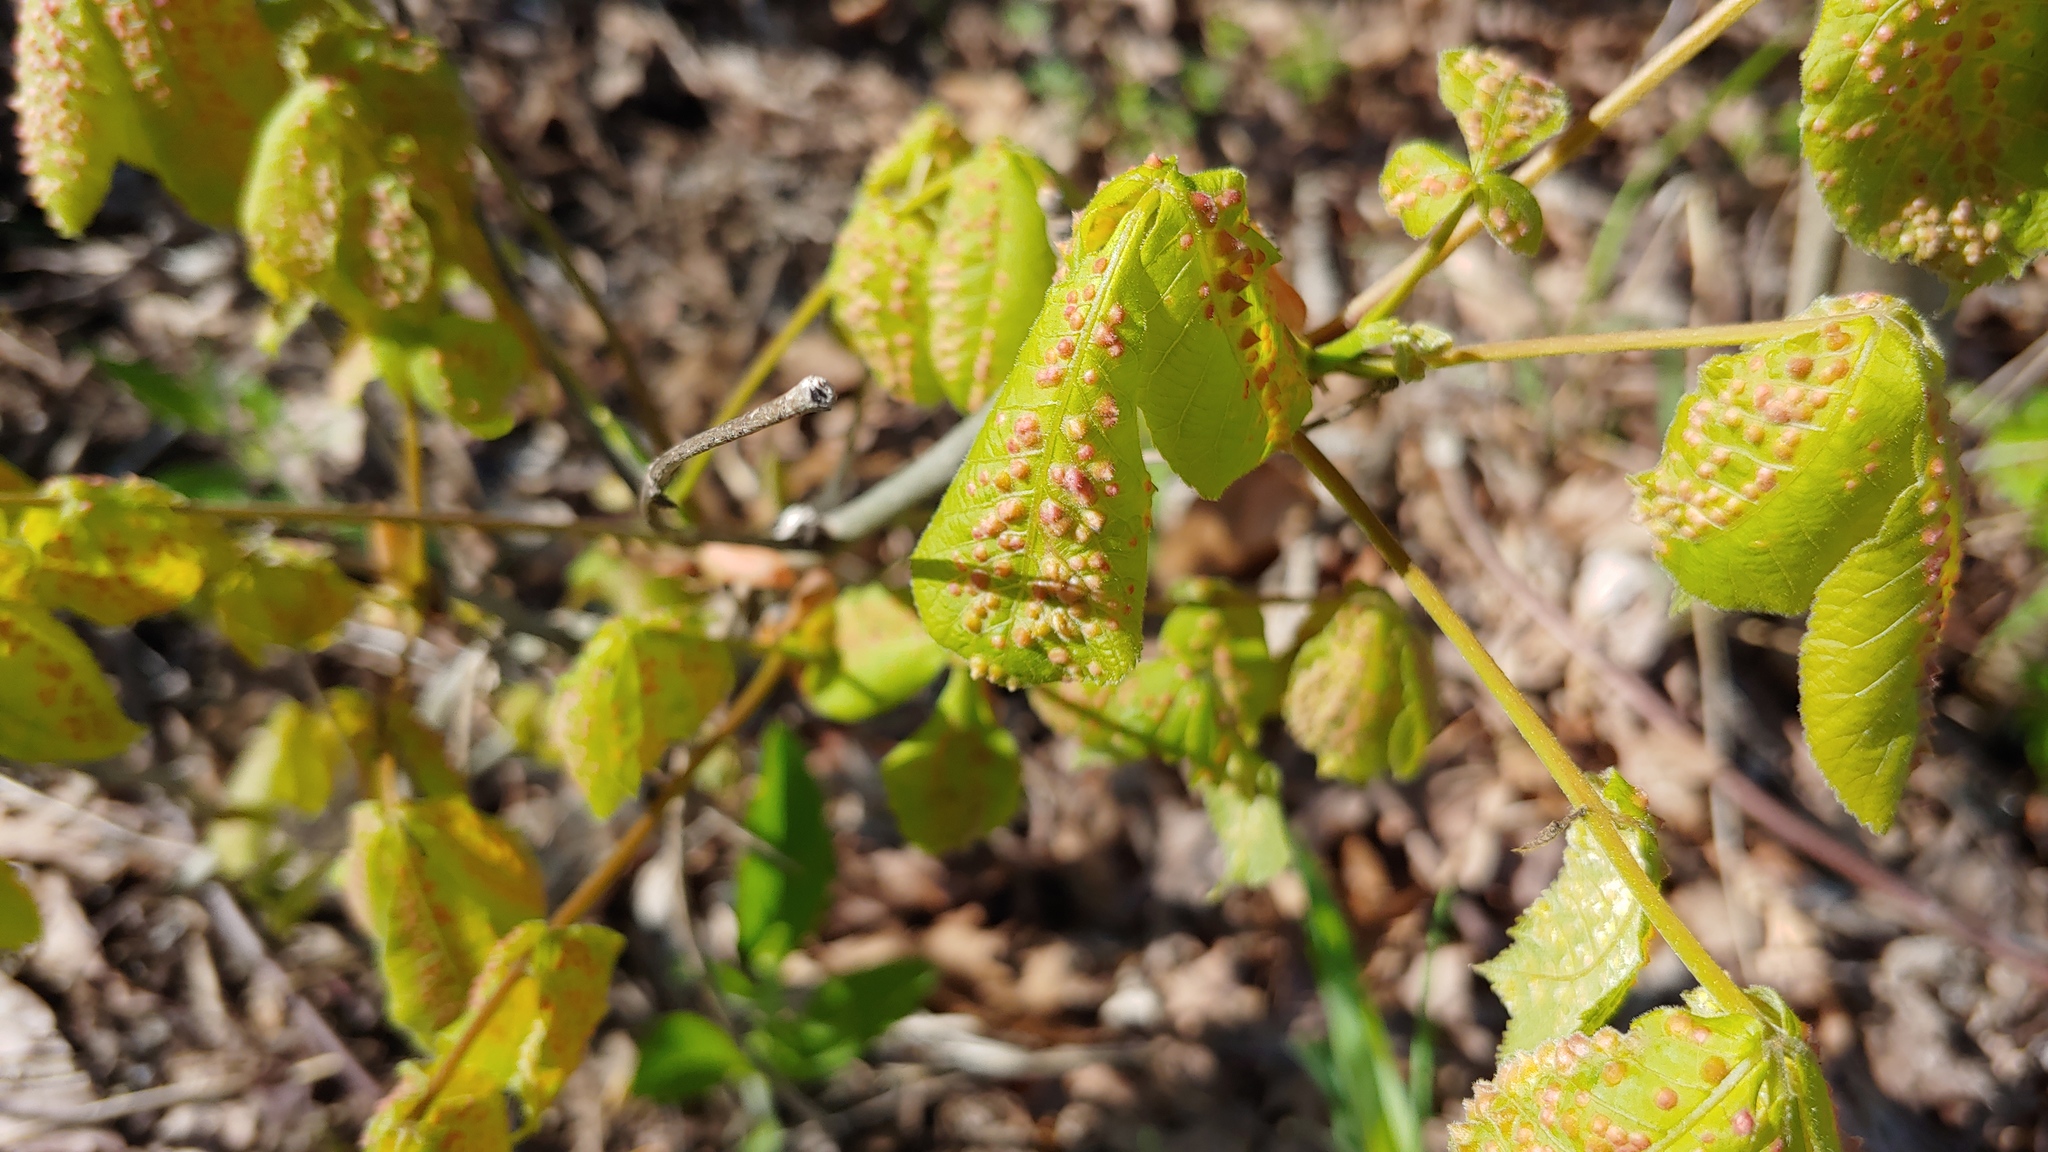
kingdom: Animalia
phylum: Arthropoda
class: Insecta
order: Hemiptera
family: Phylloxeridae
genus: Phylloxera
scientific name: Phylloxera caryaefallax
